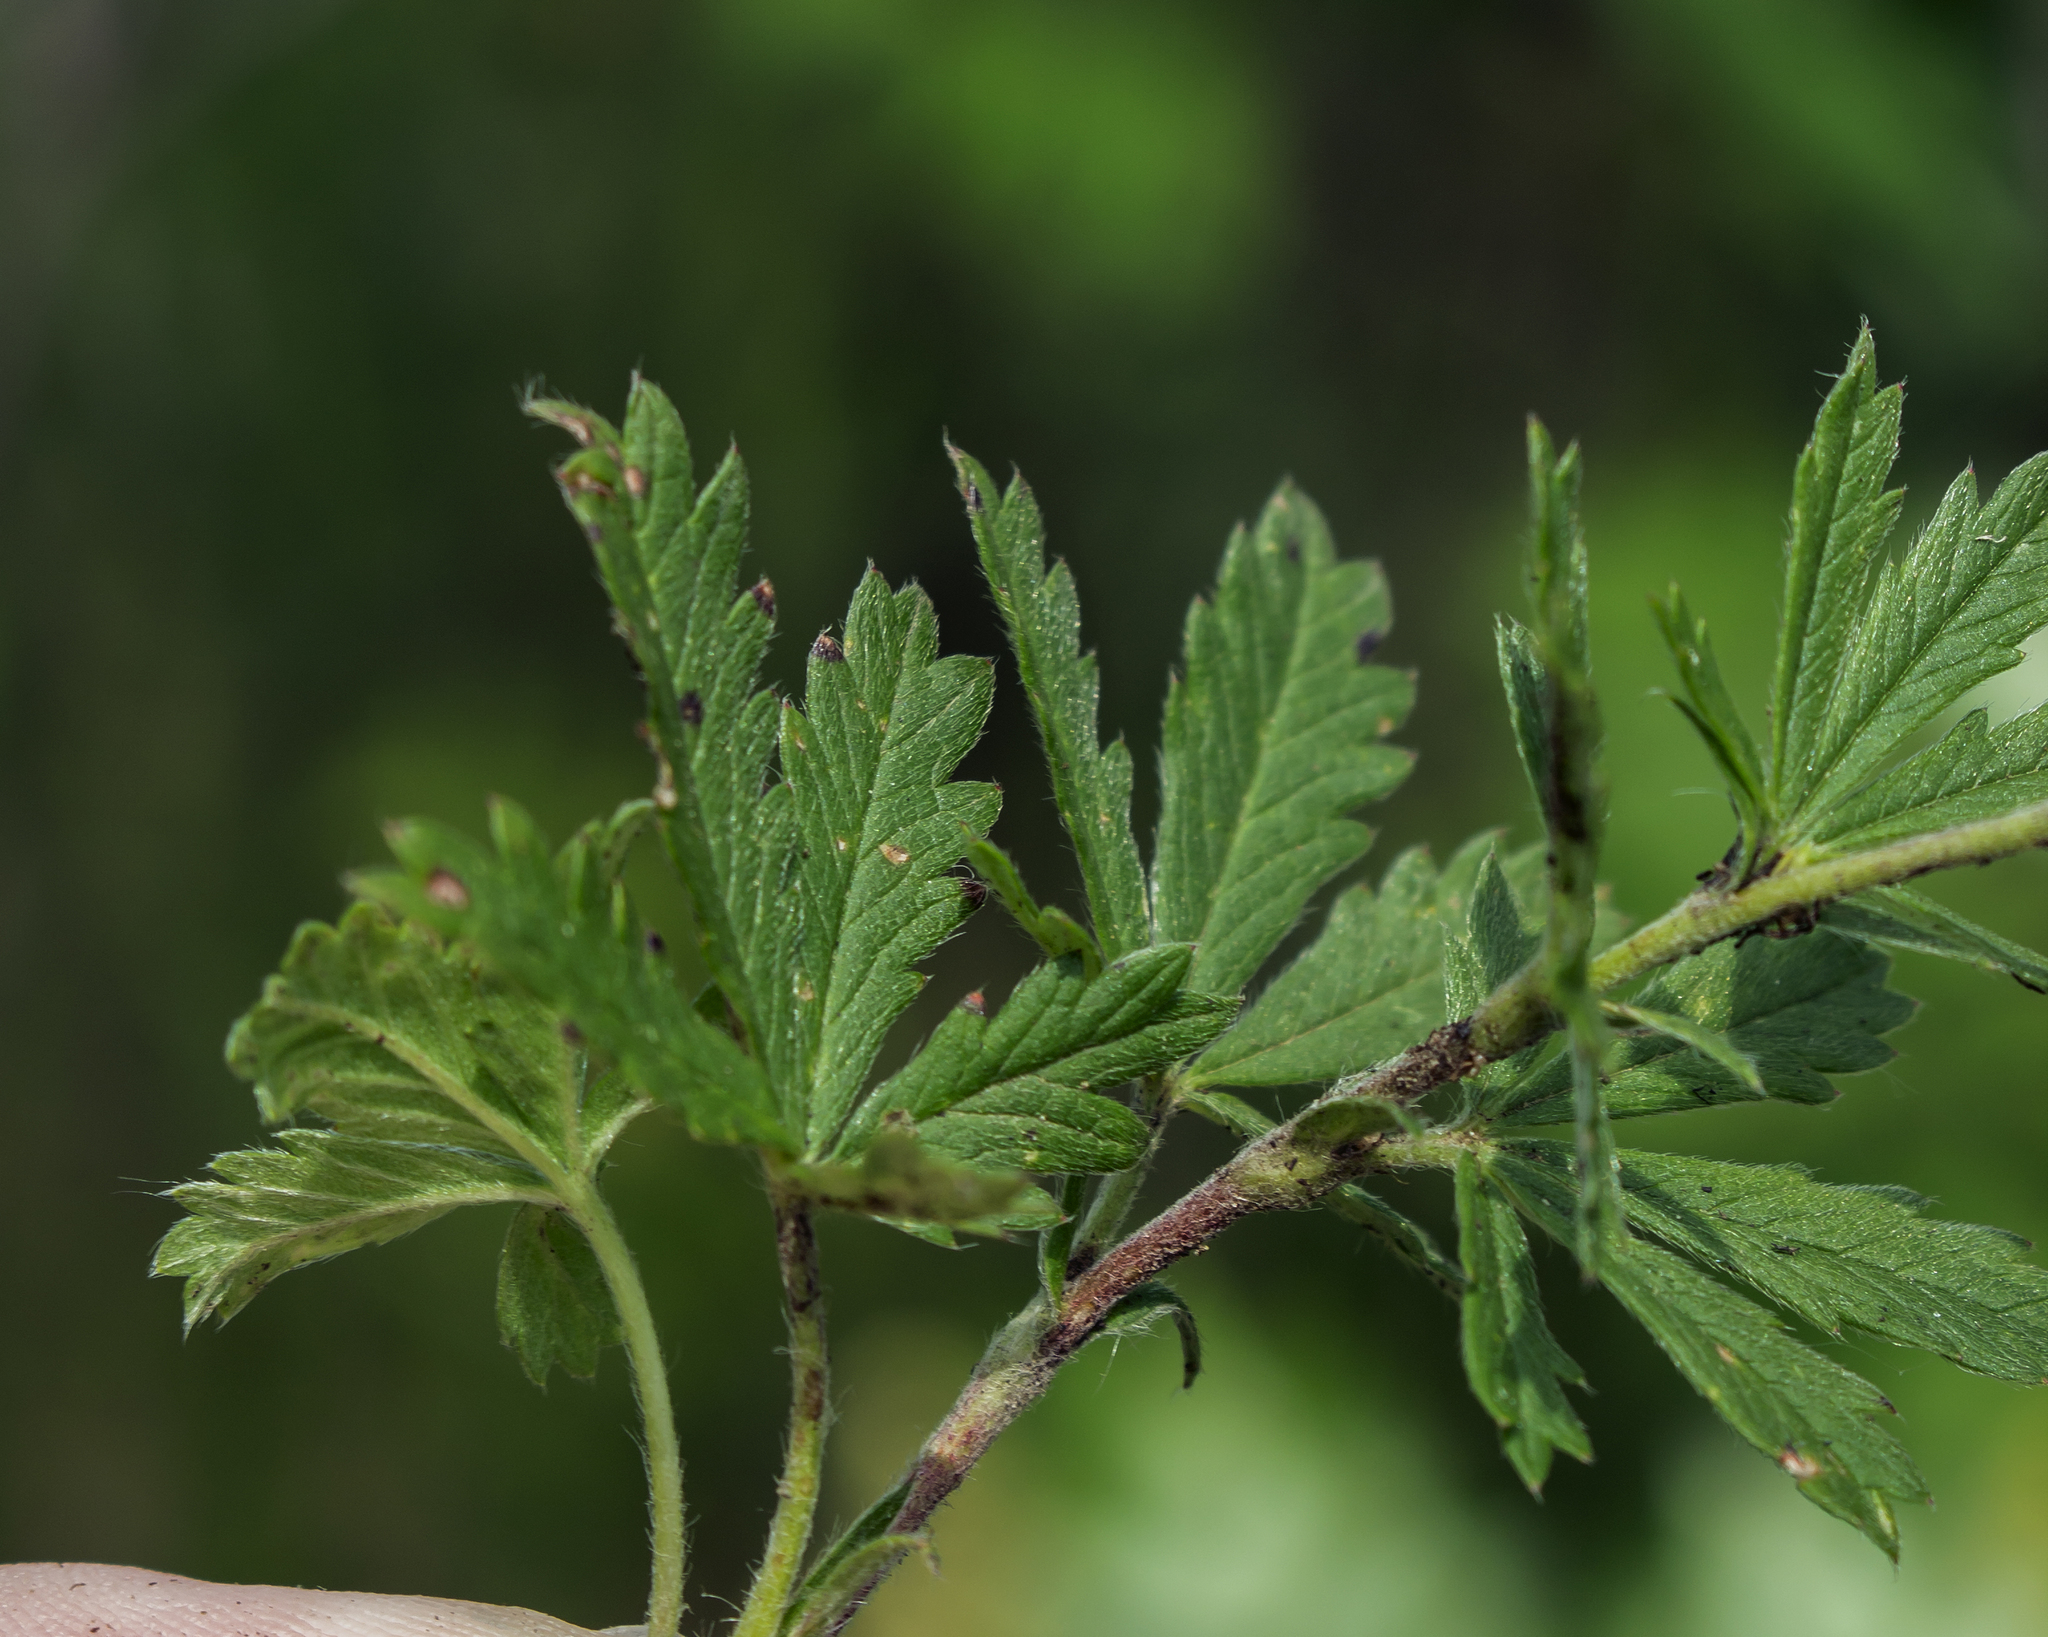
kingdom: Plantae
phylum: Tracheophyta
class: Magnoliopsida
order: Rosales
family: Rosaceae
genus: Potentilla
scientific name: Potentilla inclinata
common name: Grey cinquefoil
